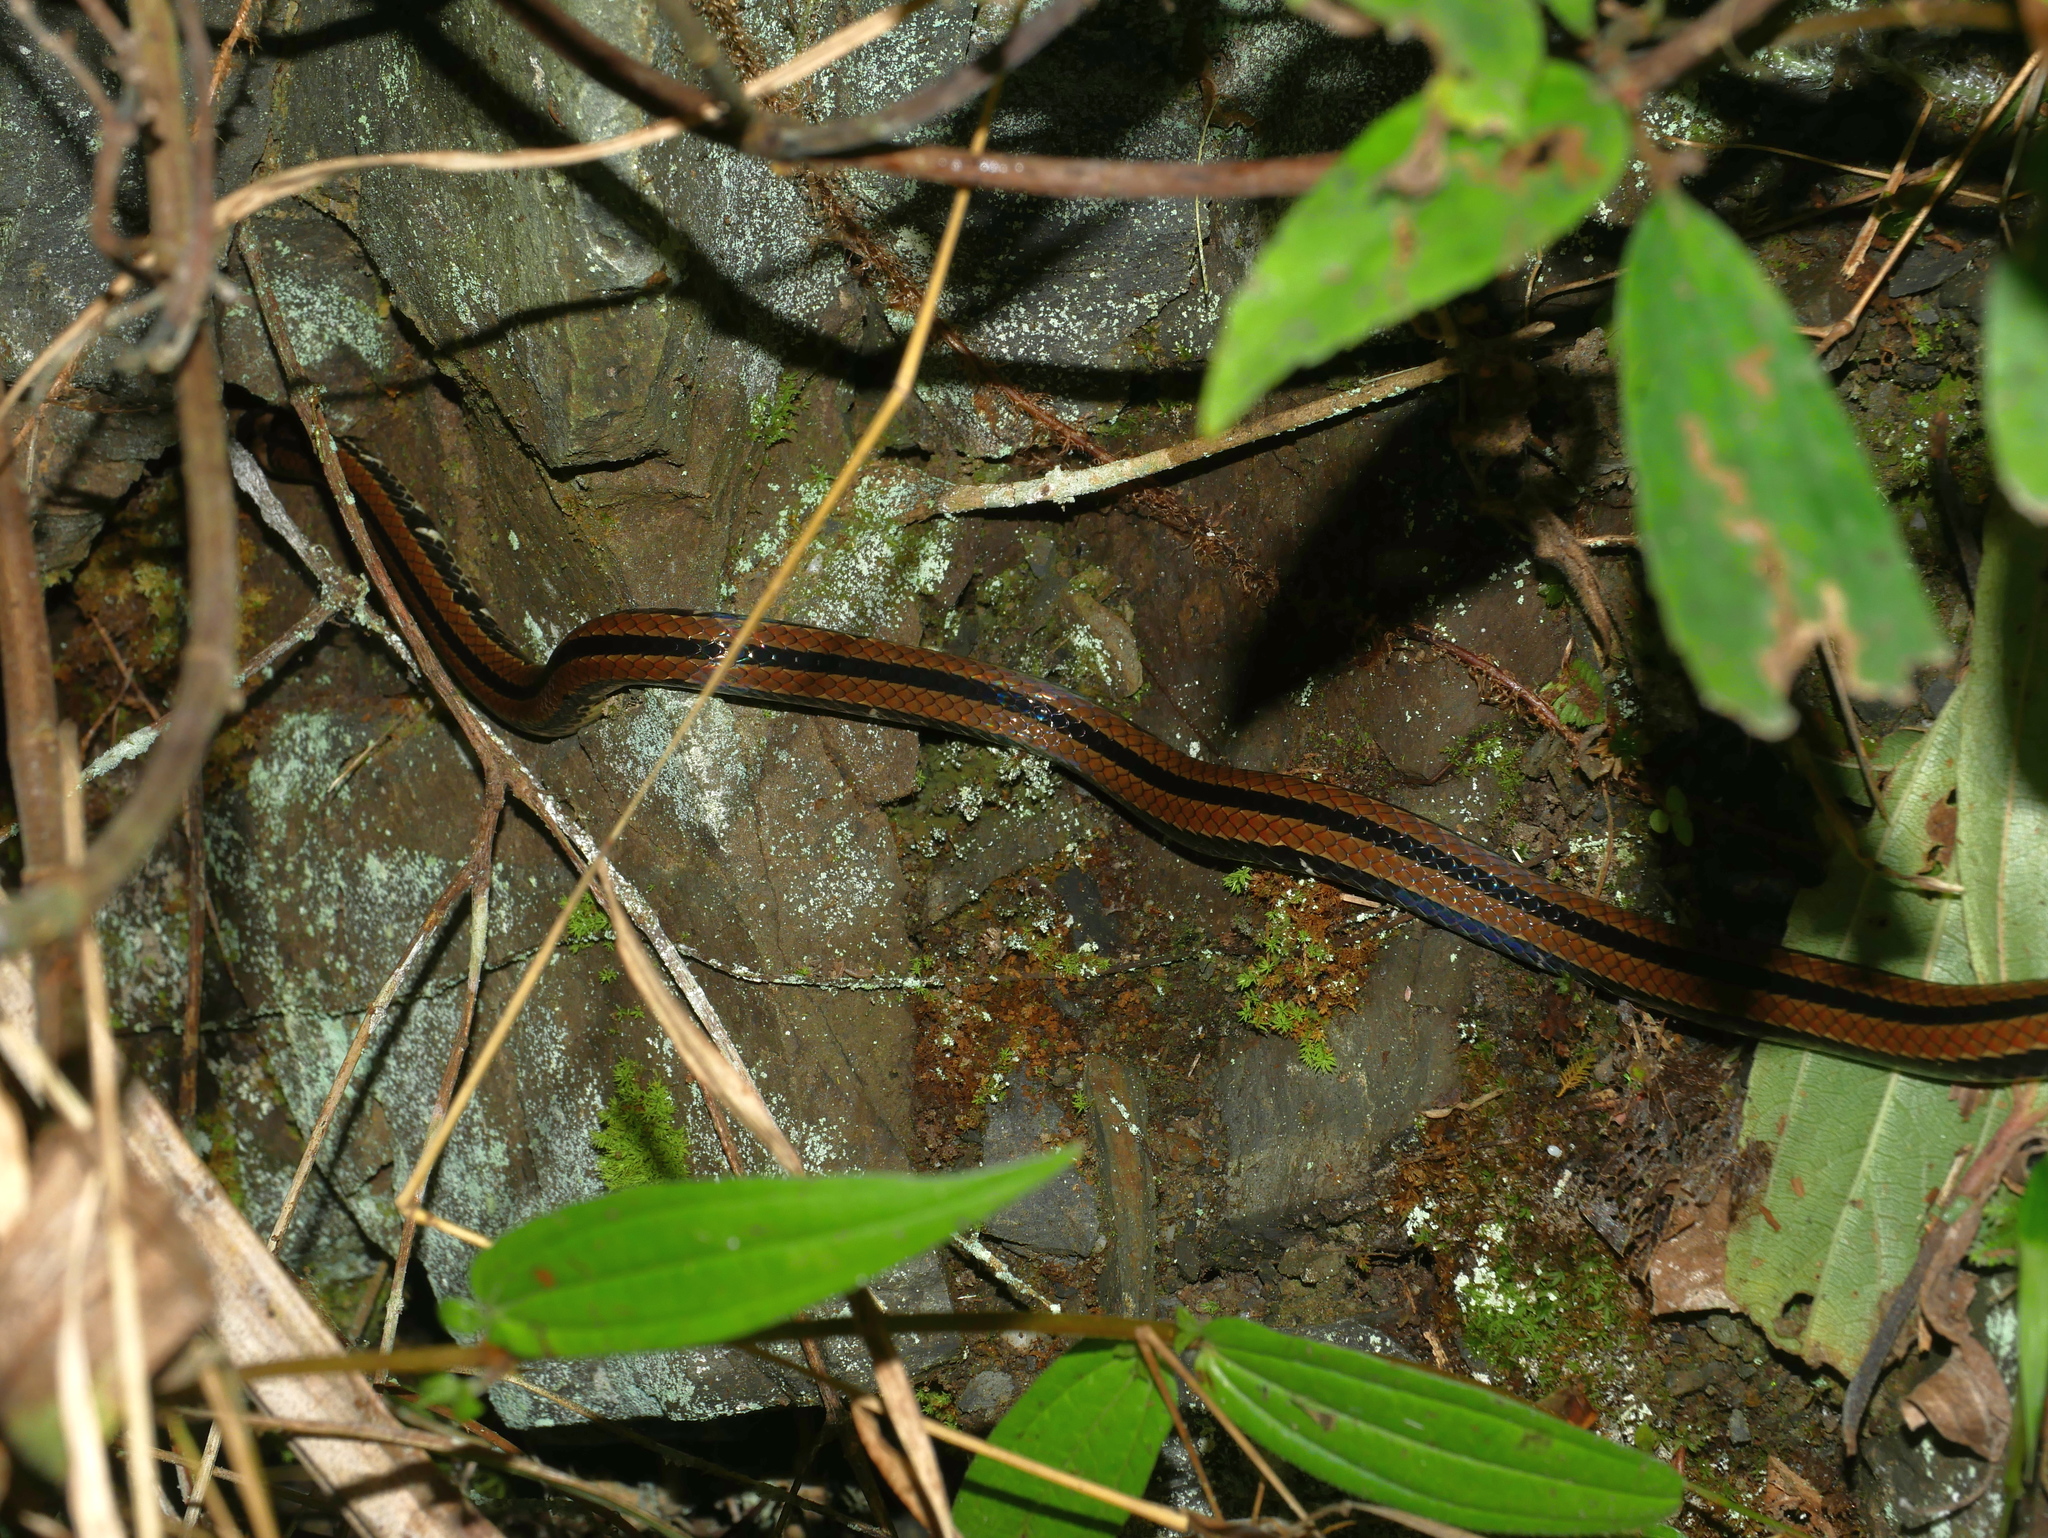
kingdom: Animalia
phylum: Chordata
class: Squamata
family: Elapidae
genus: Sinomicrurus
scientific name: Sinomicrurus sauteri
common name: Oriental coral snake
